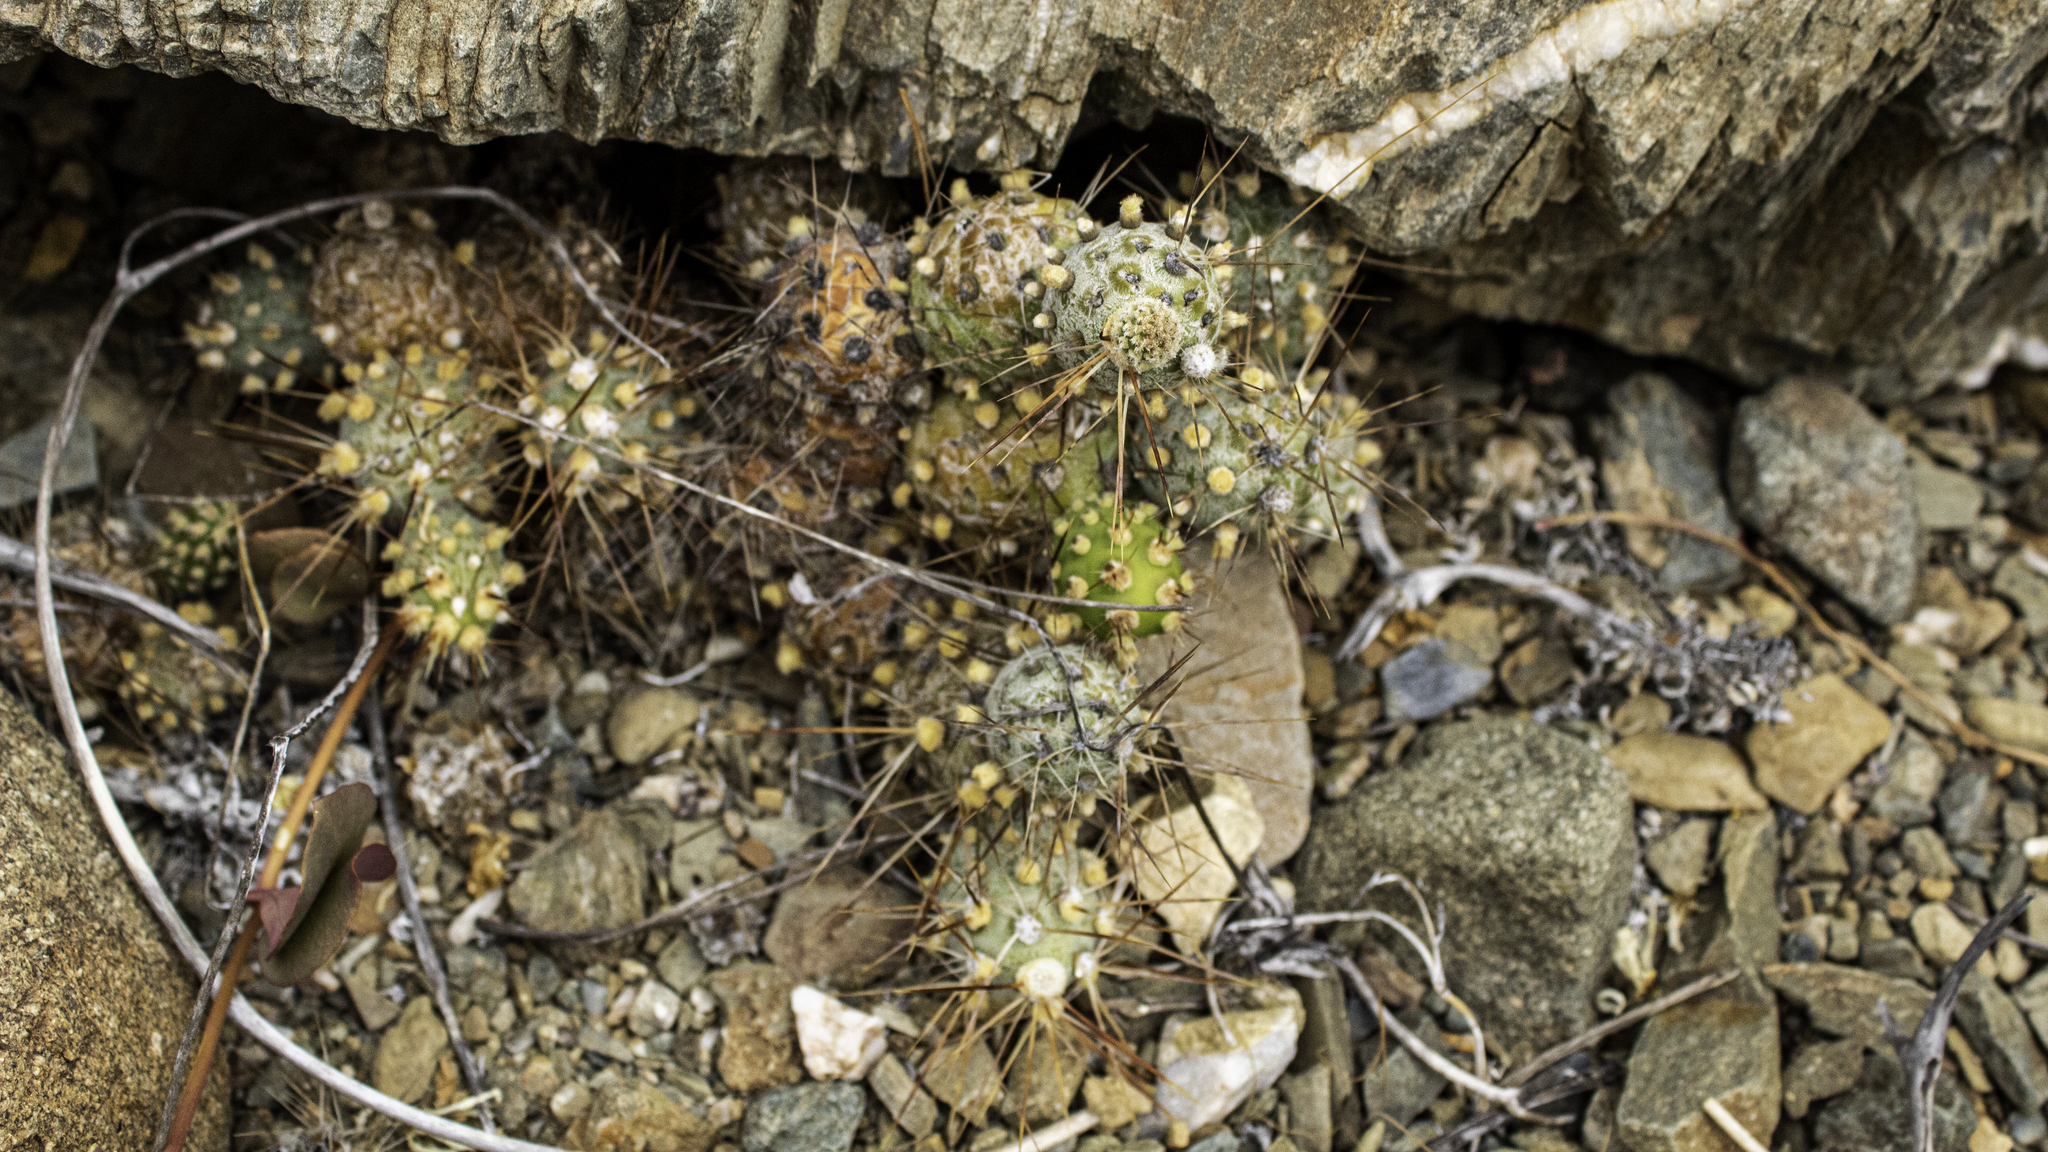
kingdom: Plantae
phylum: Tracheophyta
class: Magnoliopsida
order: Caryophyllales
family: Cactaceae
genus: Cumulopuntia
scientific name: Cumulopuntia leucophaea
